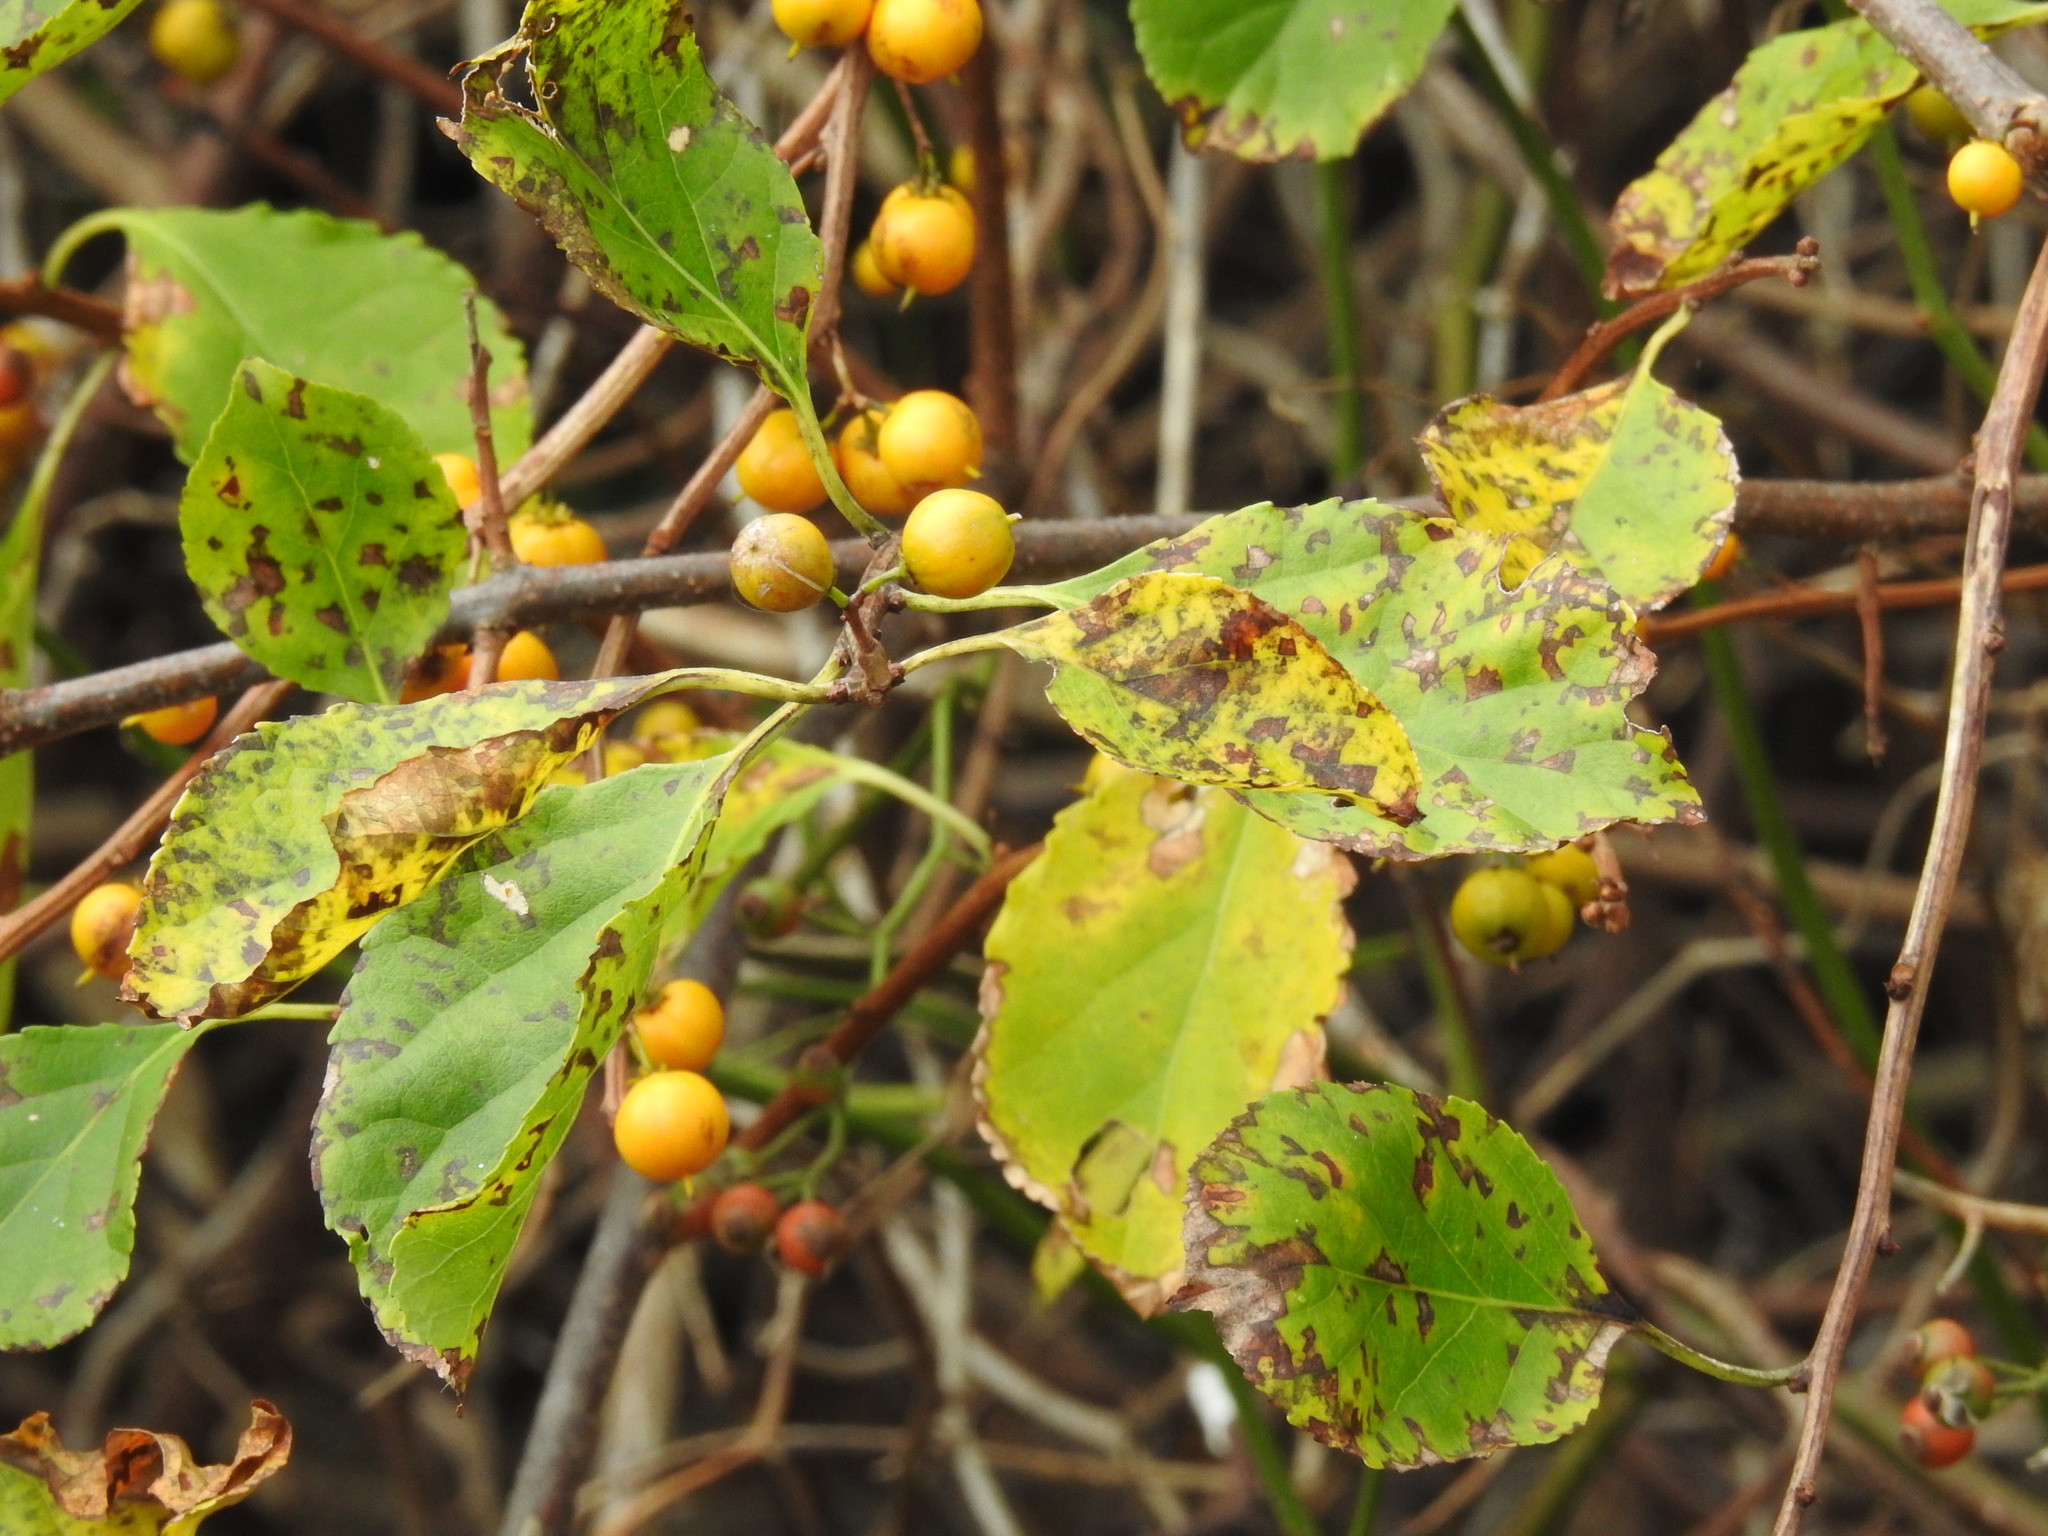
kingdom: Plantae
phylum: Tracheophyta
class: Magnoliopsida
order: Celastrales
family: Celastraceae
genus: Celastrus
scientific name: Celastrus orbiculatus
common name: Oriental bittersweet
